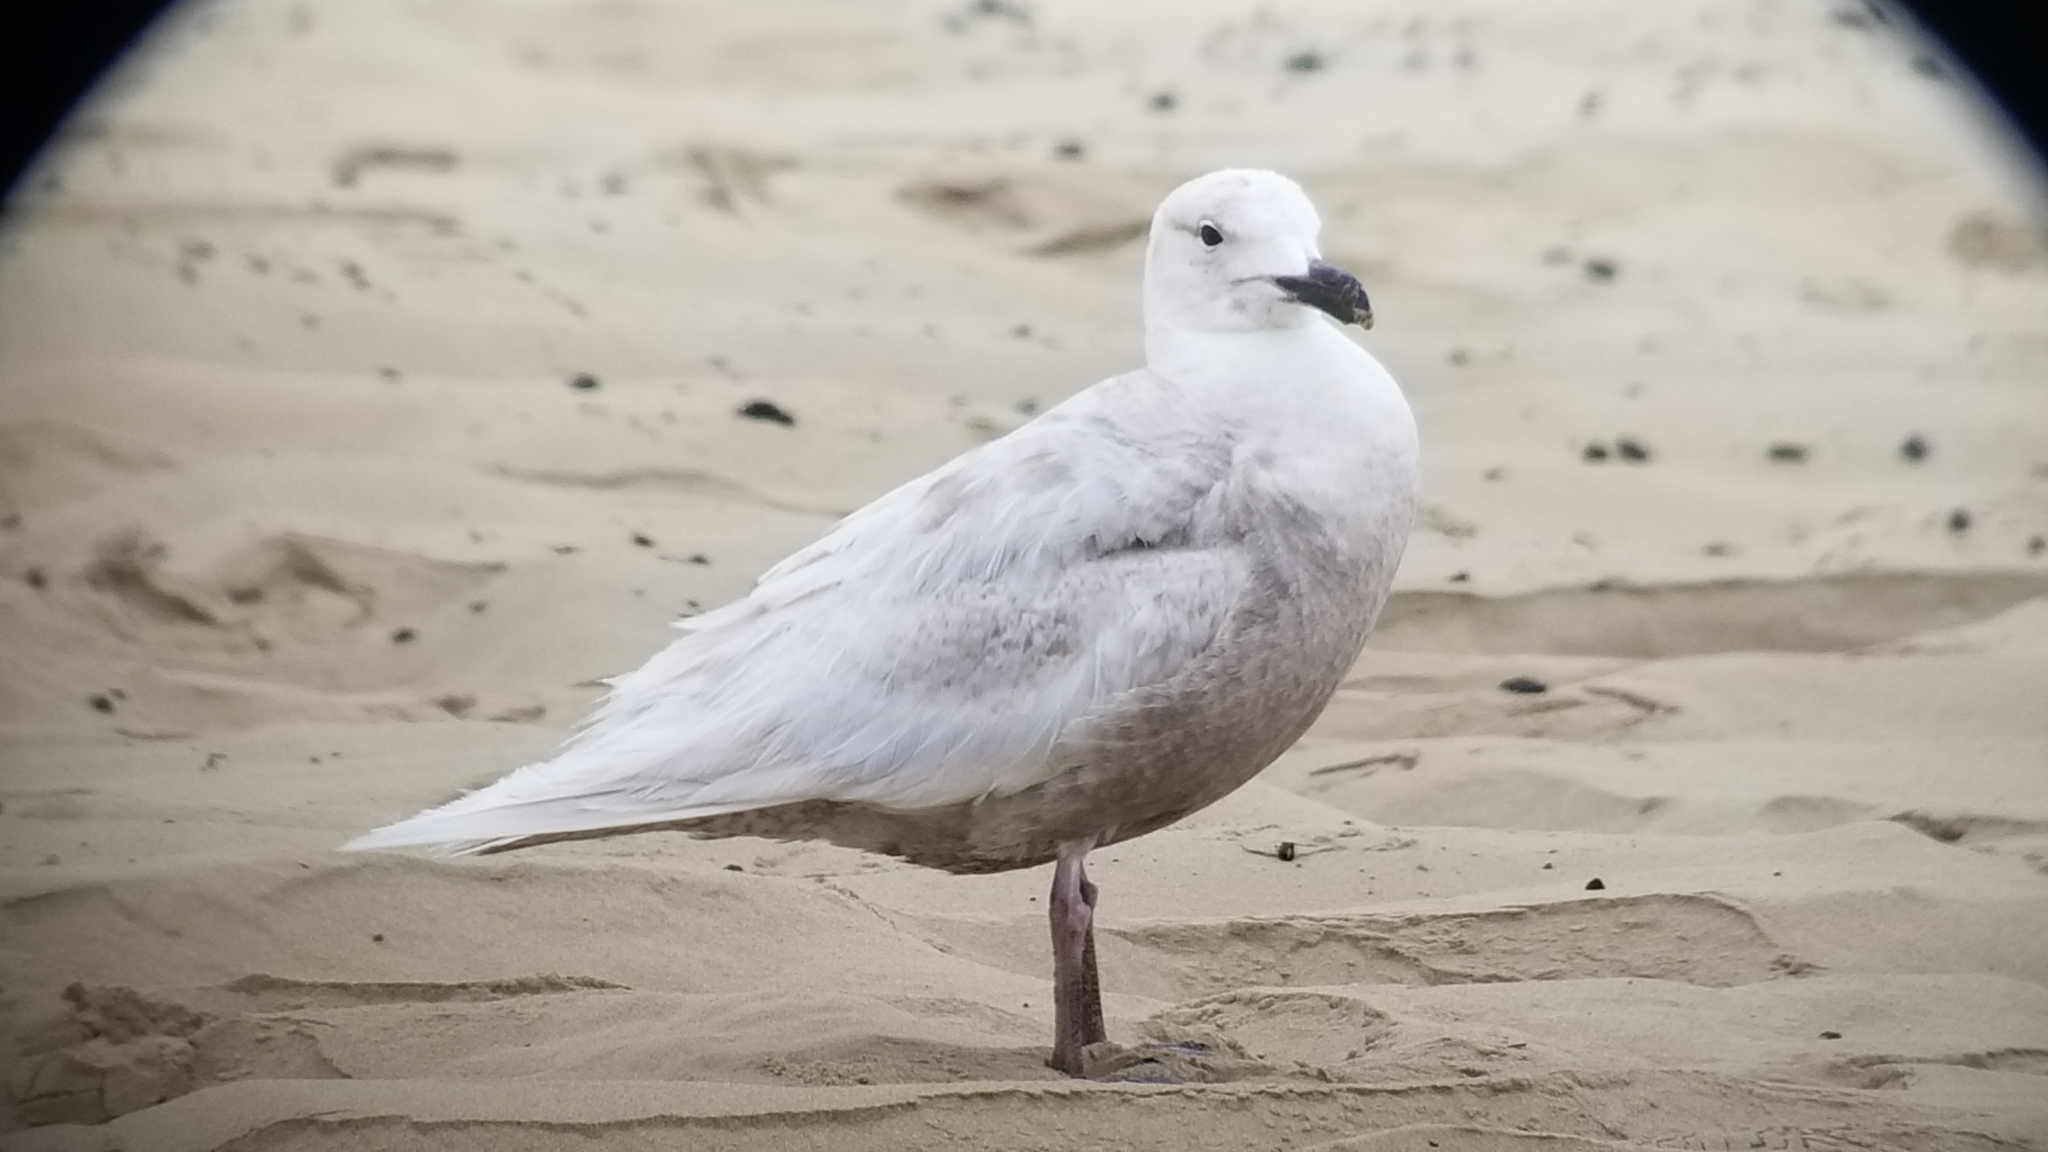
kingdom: Animalia
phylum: Chordata
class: Aves
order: Charadriiformes
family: Laridae
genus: Larus
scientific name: Larus glaucescens
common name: Glaucous-winged gull
